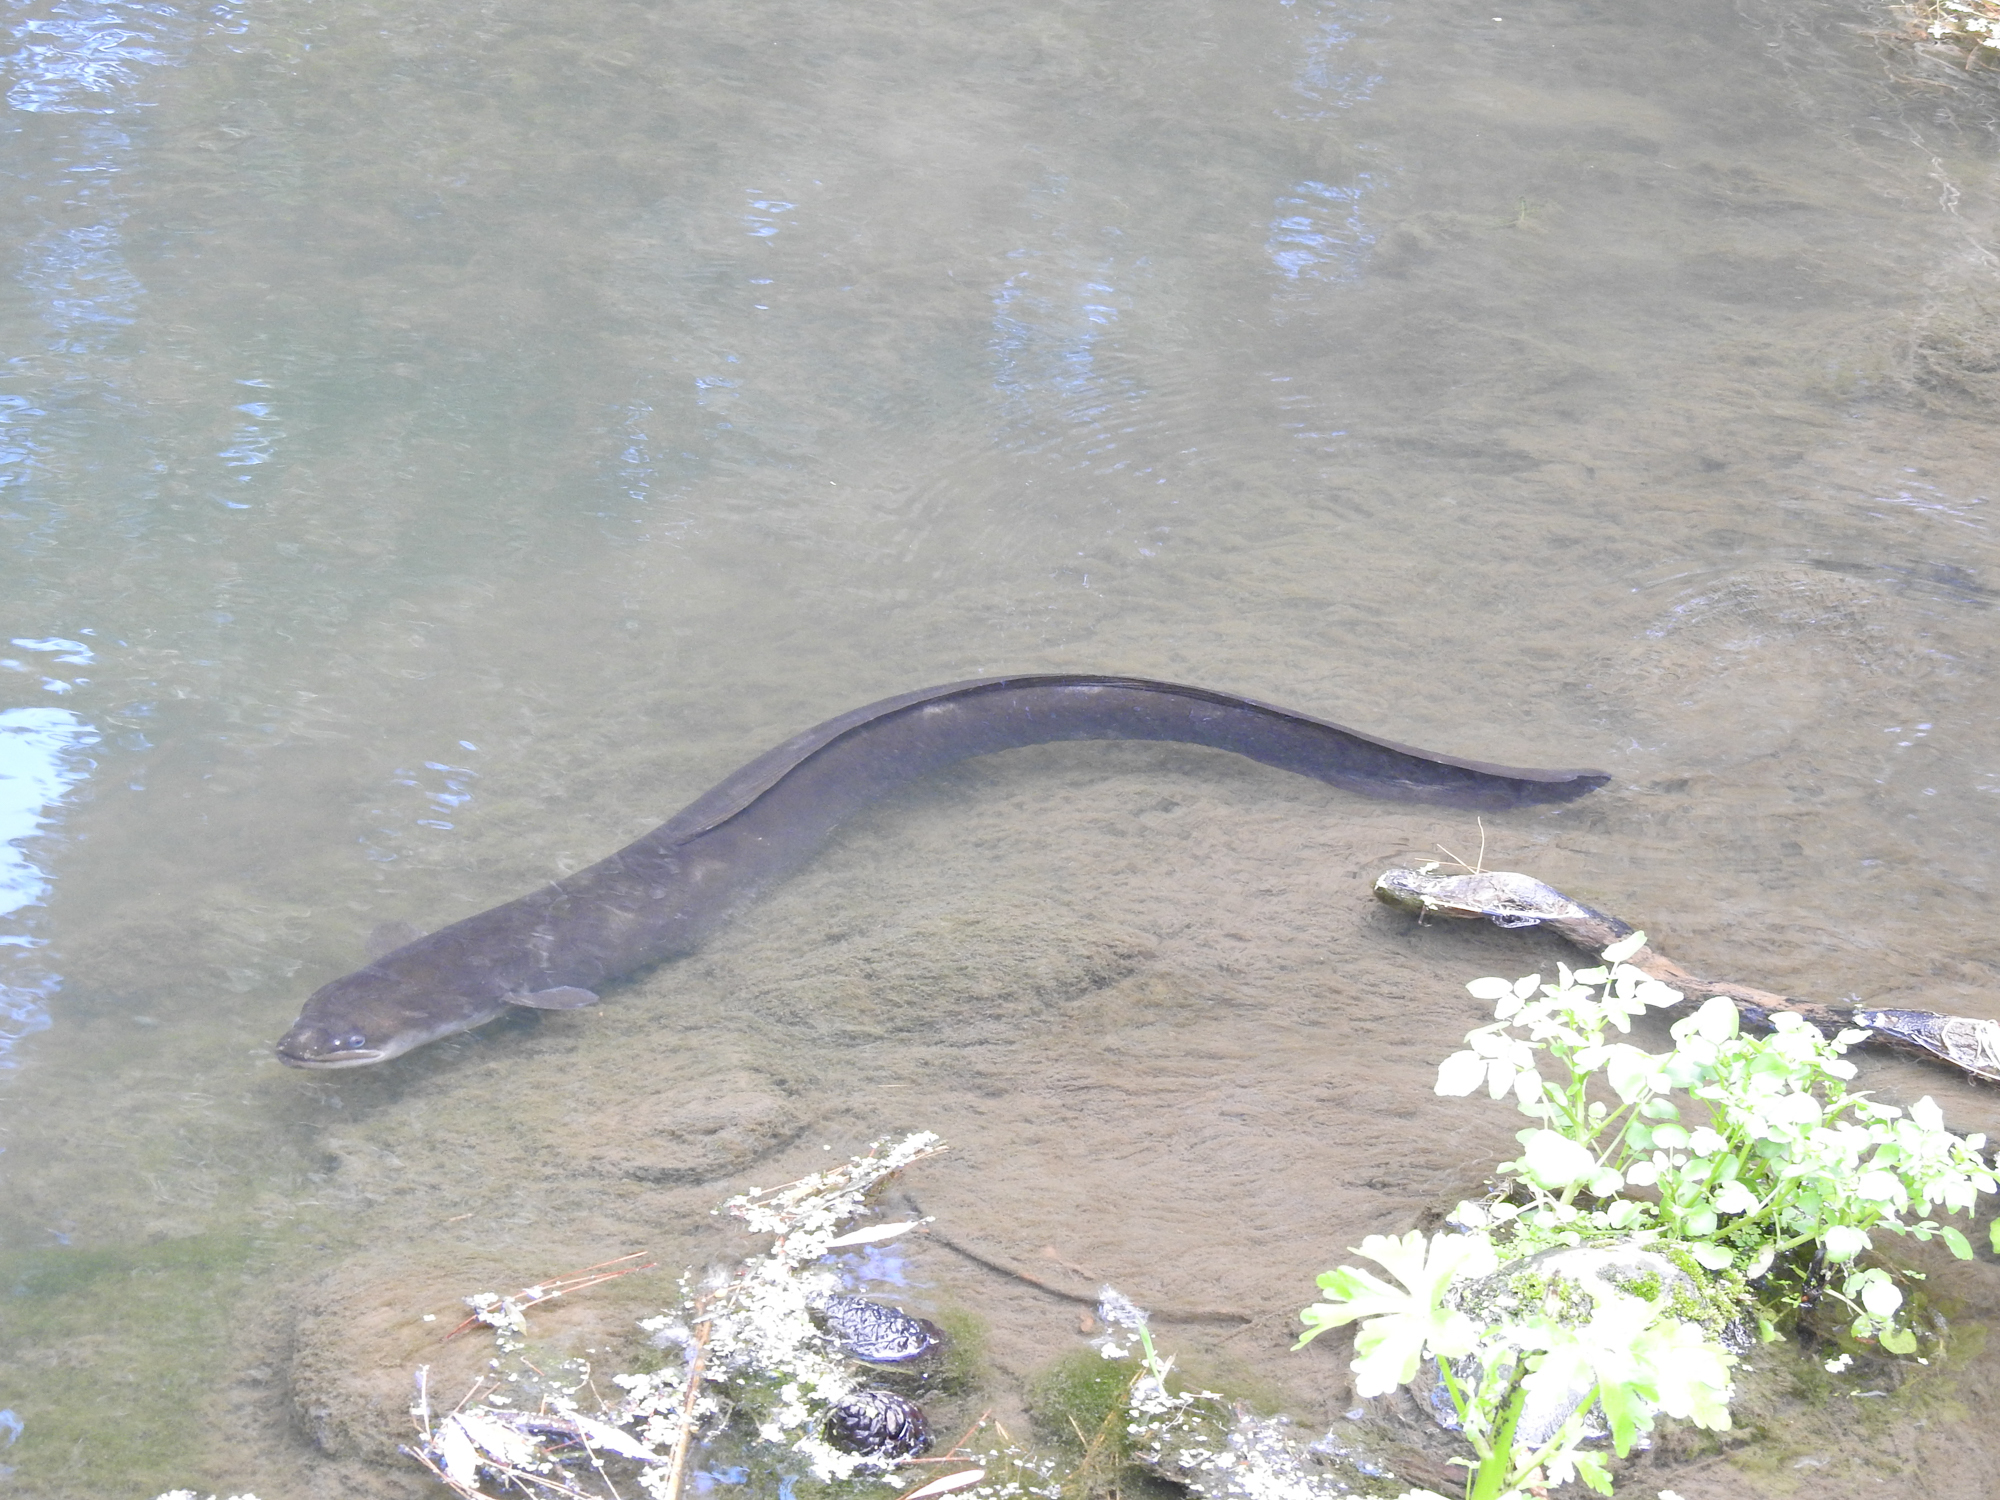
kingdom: Animalia
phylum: Chordata
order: Anguilliformes
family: Anguillidae
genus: Anguilla
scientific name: Anguilla dieffenbachii
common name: New zealand longfin eel
